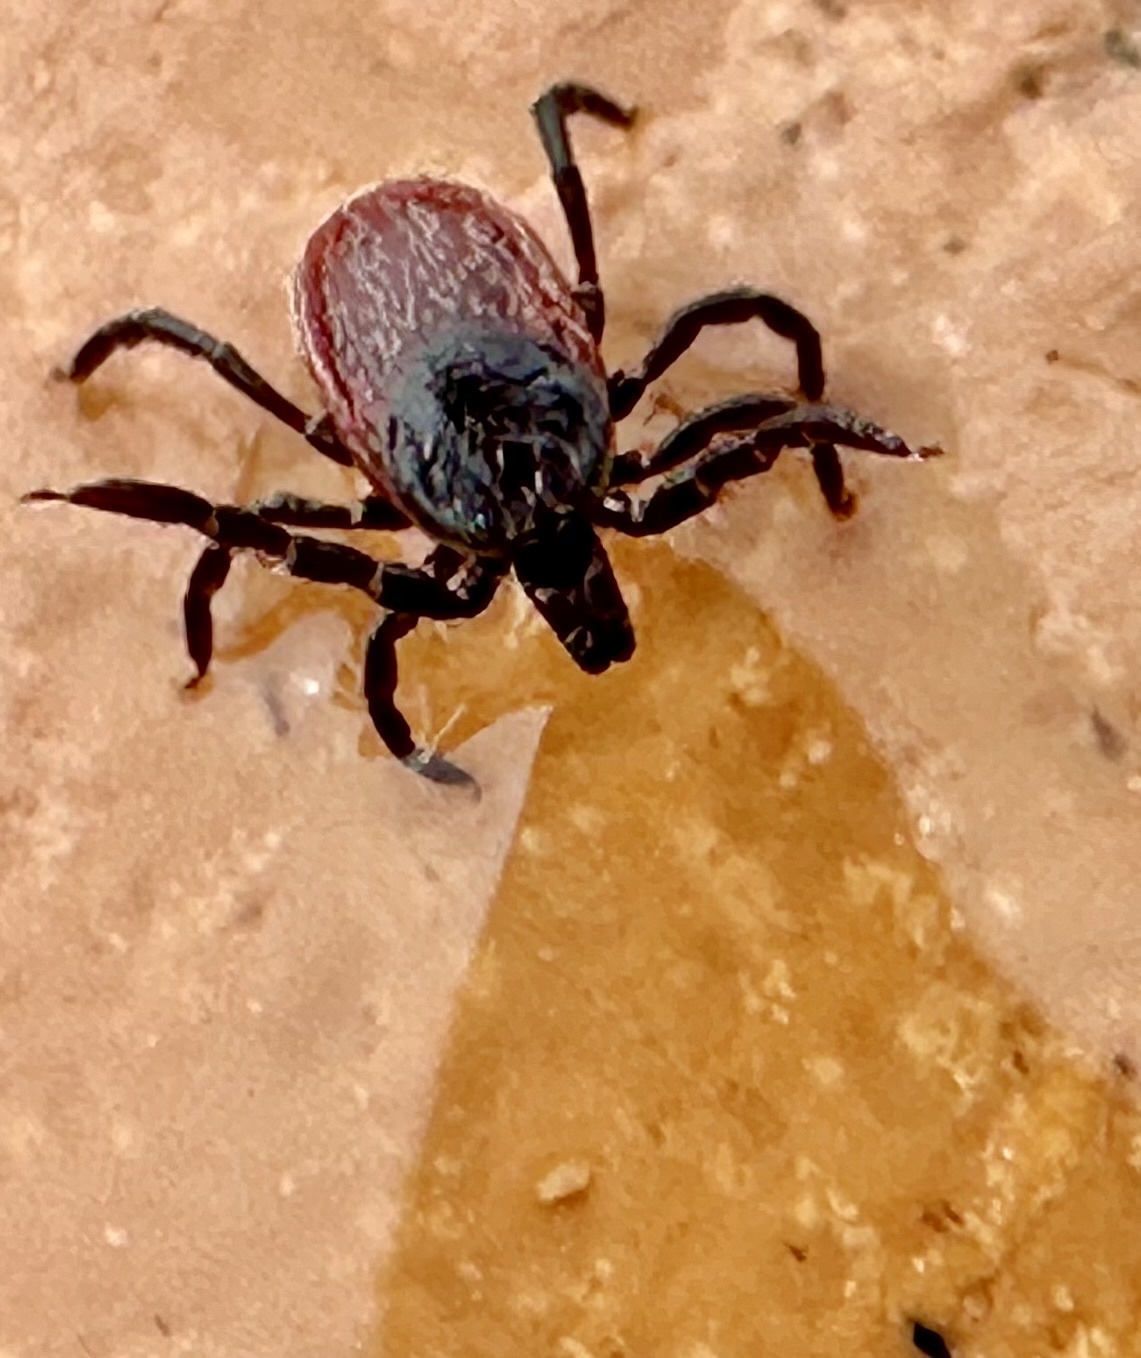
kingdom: Animalia
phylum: Arthropoda
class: Arachnida
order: Ixodida
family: Ixodidae
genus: Ixodes
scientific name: Ixodes pacificus
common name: California black-legged tick
